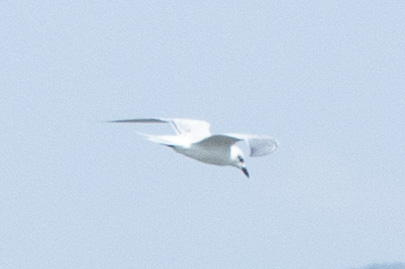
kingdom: Animalia
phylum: Chordata
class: Aves
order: Charadriiformes
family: Laridae
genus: Gelochelidon
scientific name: Gelochelidon nilotica
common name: Gull-billed tern
